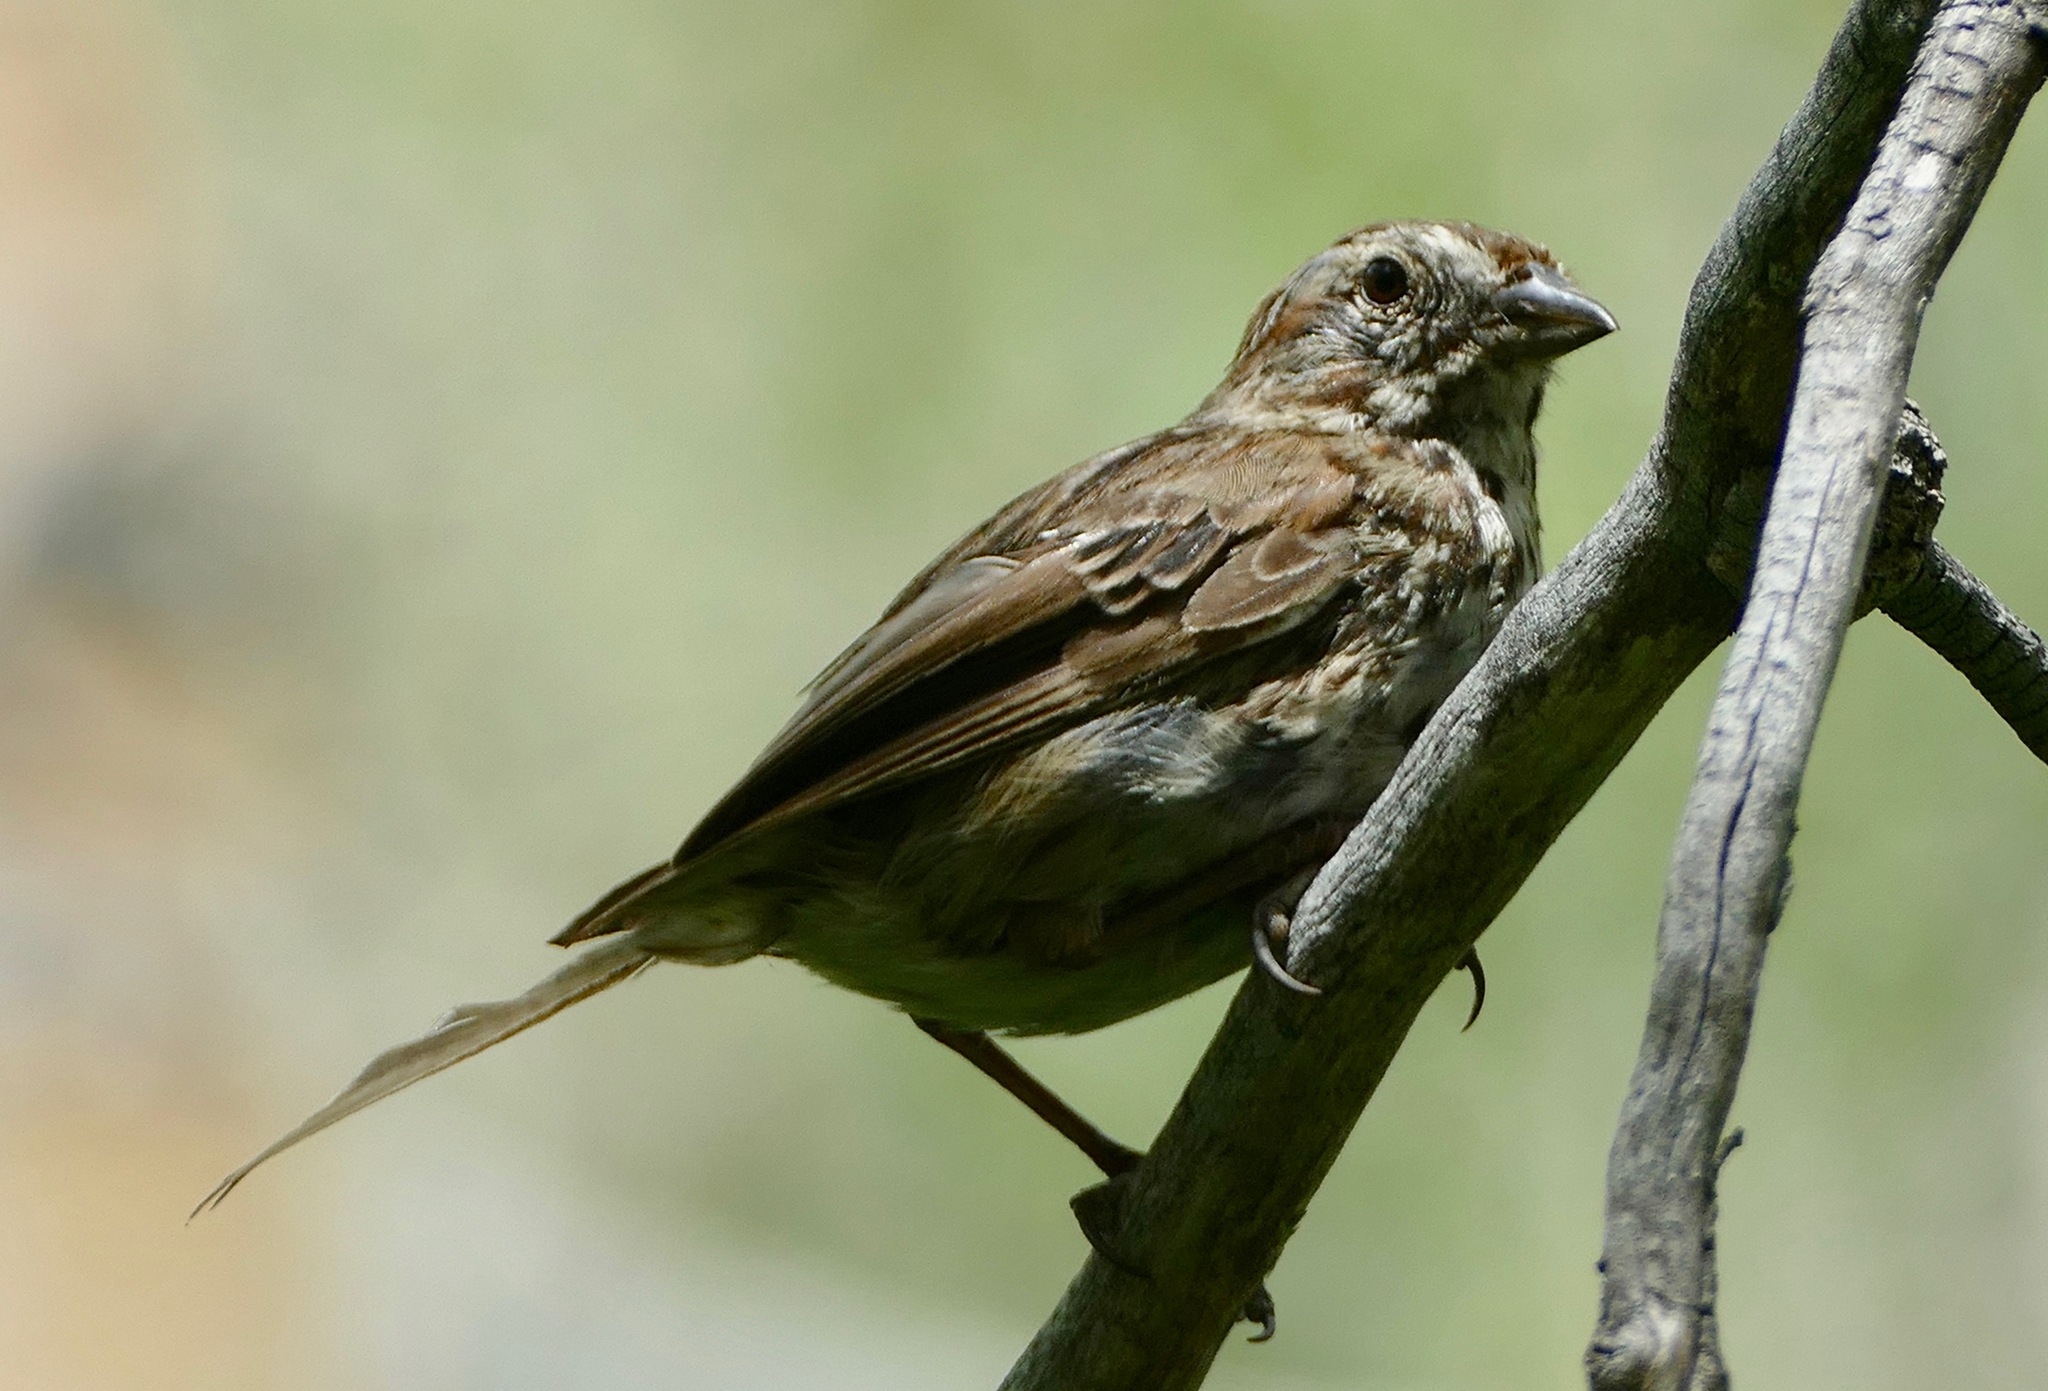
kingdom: Animalia
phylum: Chordata
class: Aves
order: Passeriformes
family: Passerellidae
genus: Melospiza
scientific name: Melospiza melodia
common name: Song sparrow
